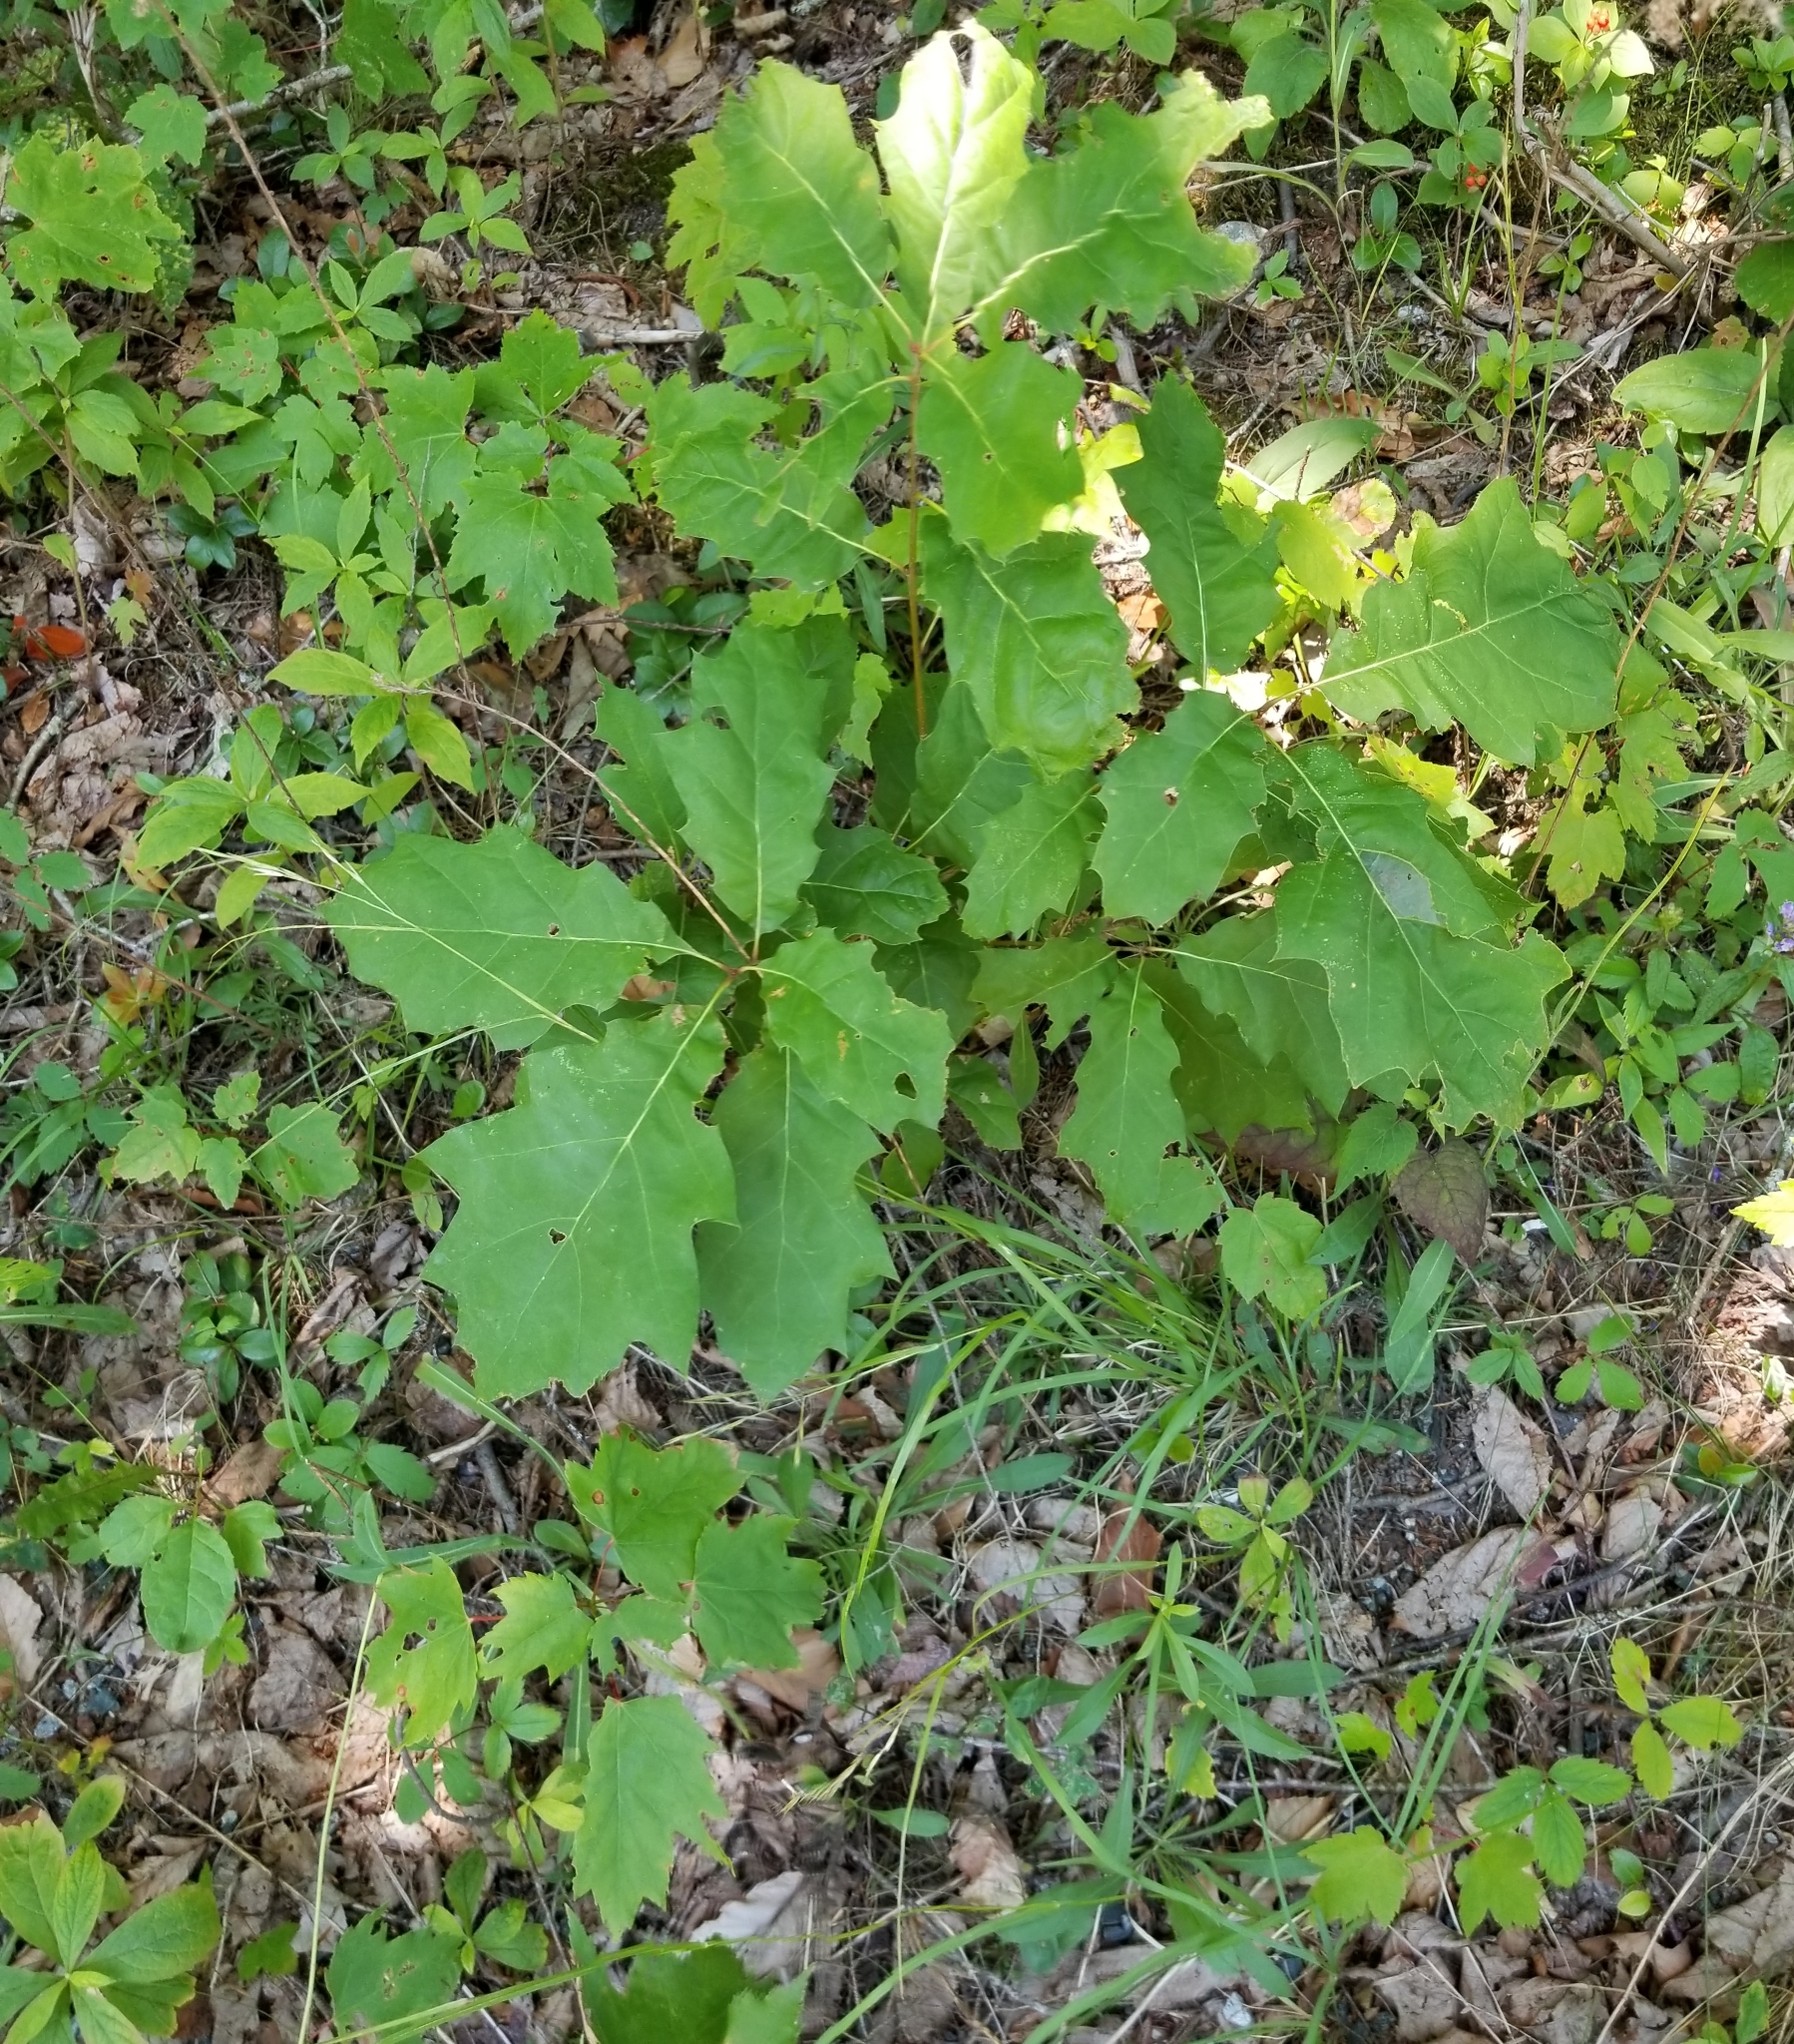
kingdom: Plantae
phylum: Tracheophyta
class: Magnoliopsida
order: Fagales
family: Fagaceae
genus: Quercus
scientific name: Quercus rubra
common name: Red oak
